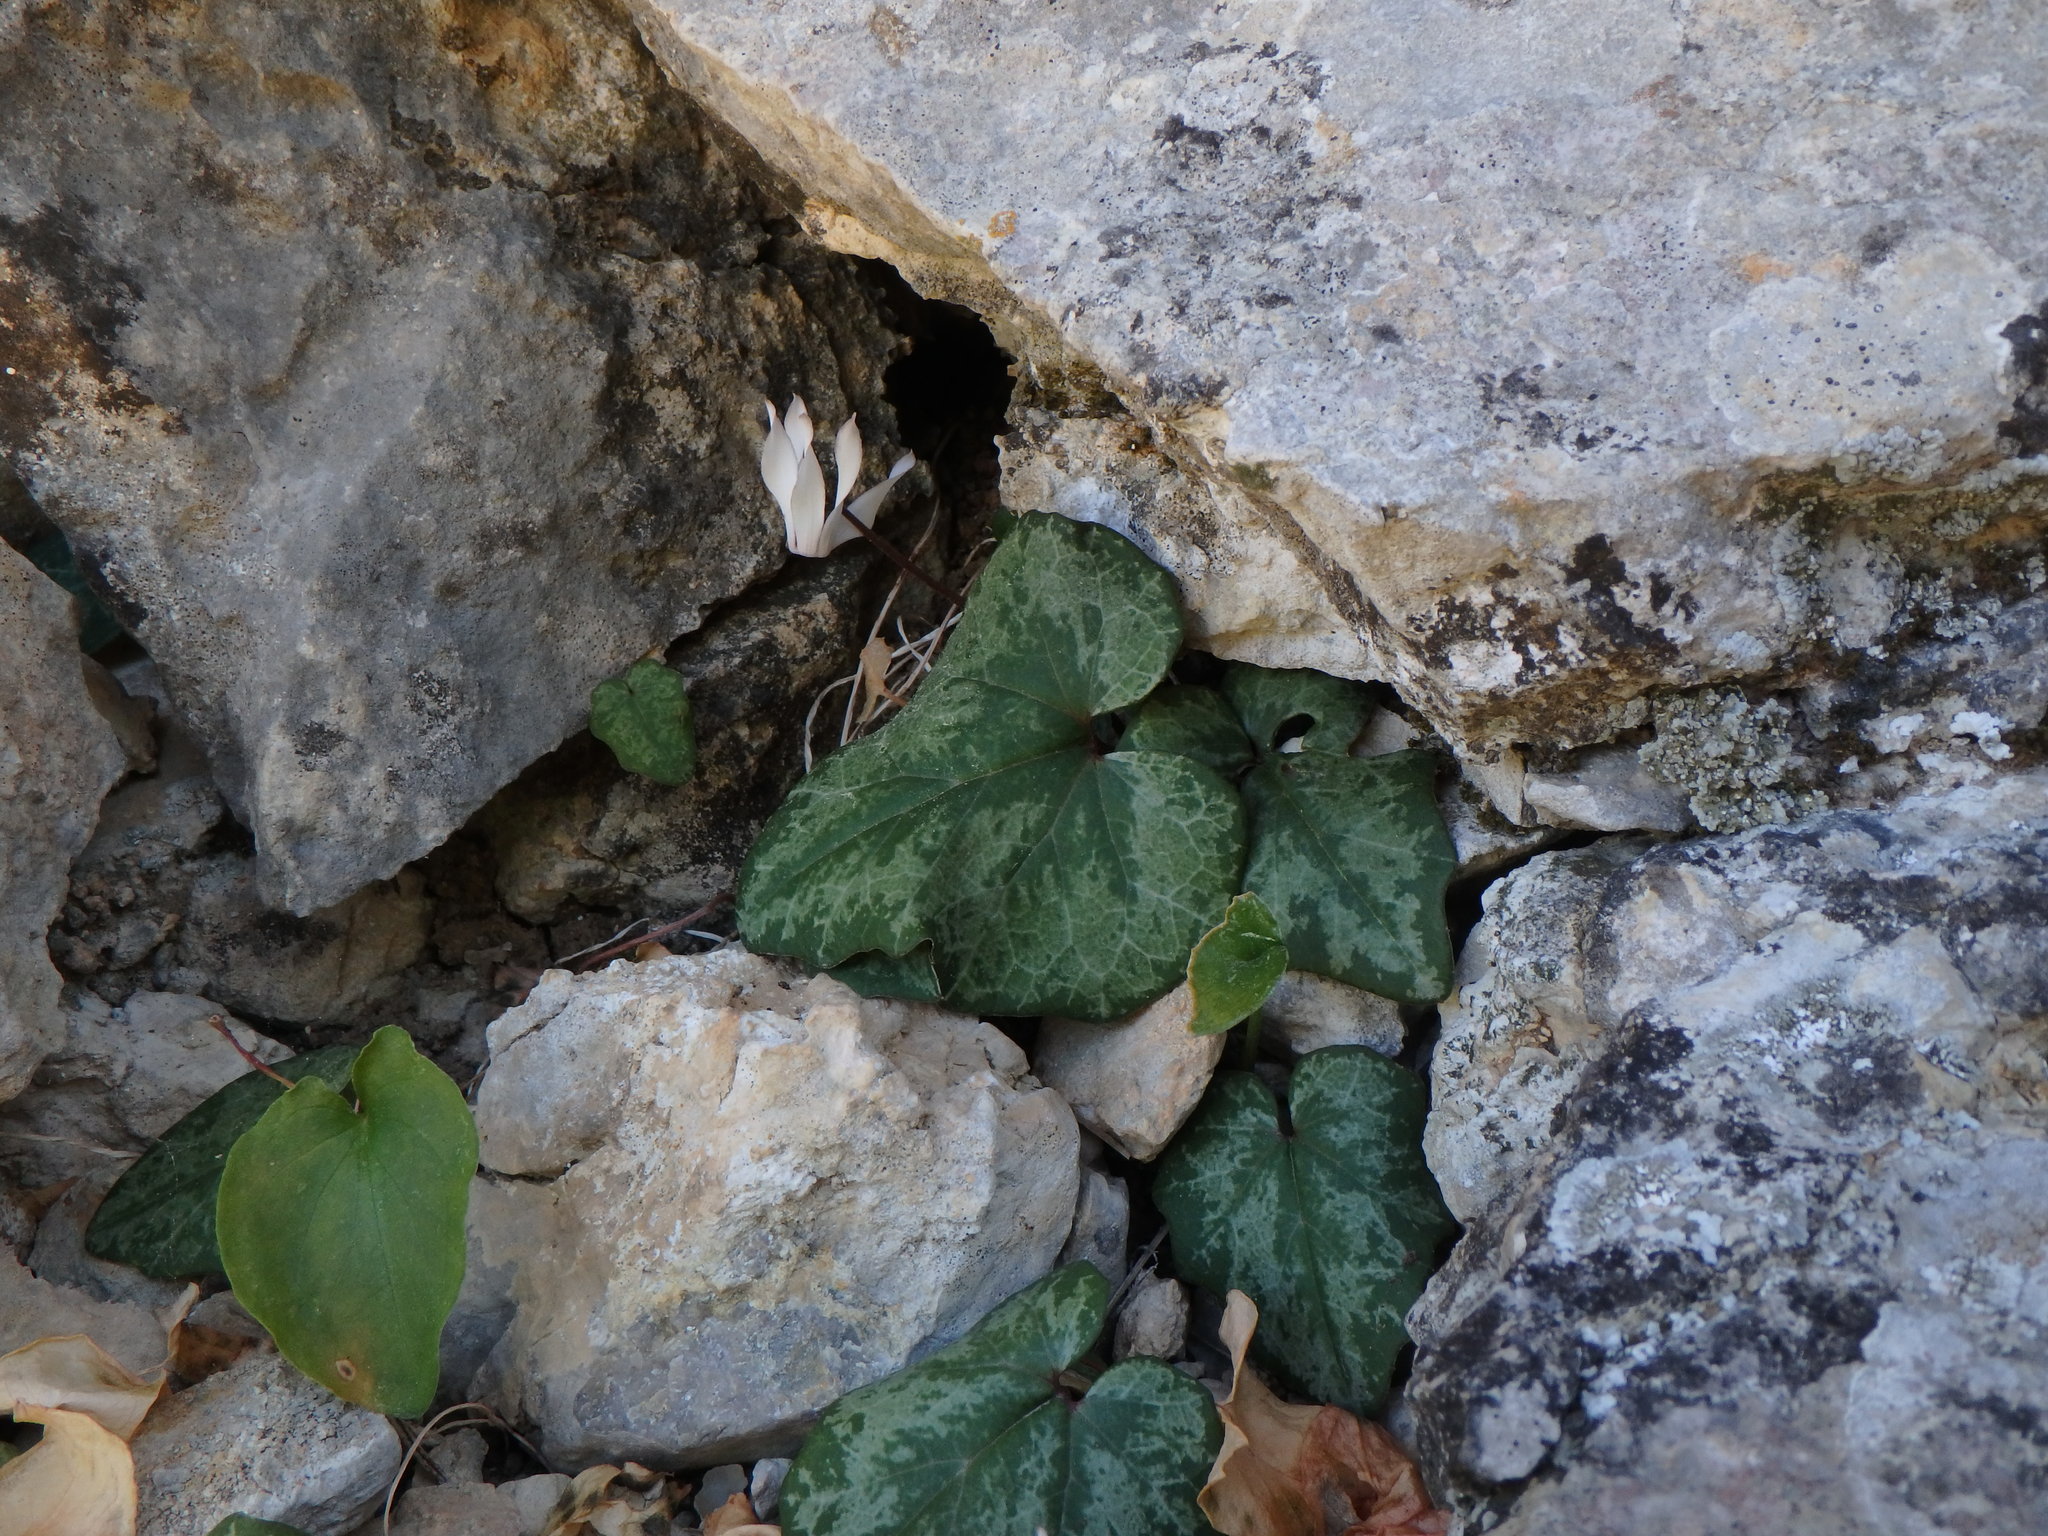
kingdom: Plantae
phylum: Tracheophyta
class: Magnoliopsida
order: Ericales
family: Primulaceae
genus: Cyclamen
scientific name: Cyclamen balearicum
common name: Majorca cyclamen
